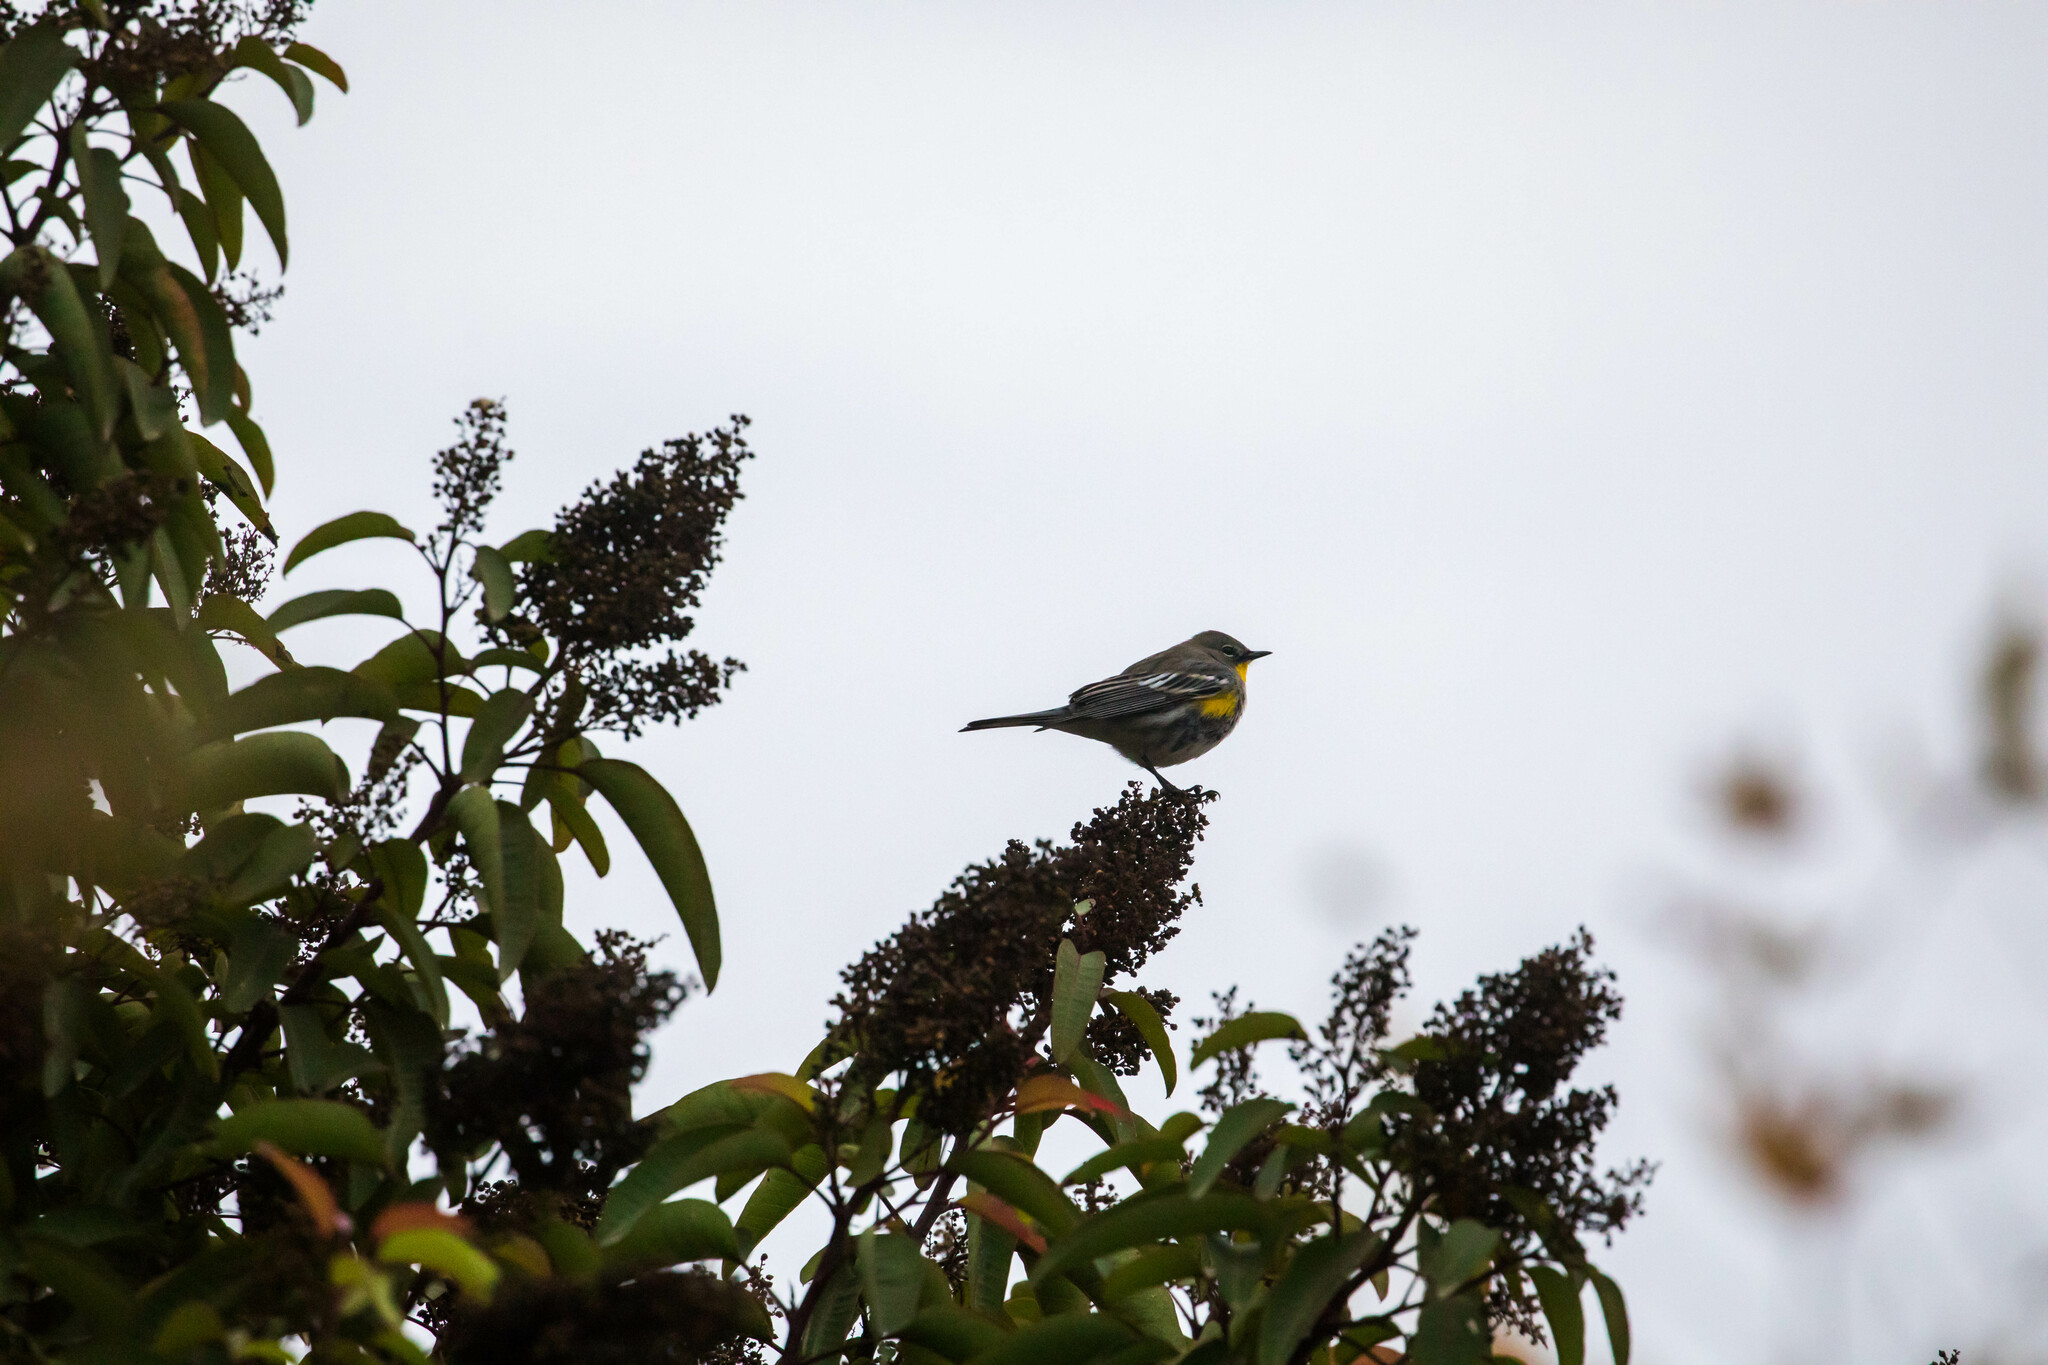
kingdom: Animalia
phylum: Chordata
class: Aves
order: Passeriformes
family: Parulidae
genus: Setophaga
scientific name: Setophaga auduboni
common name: Audubon's warbler
